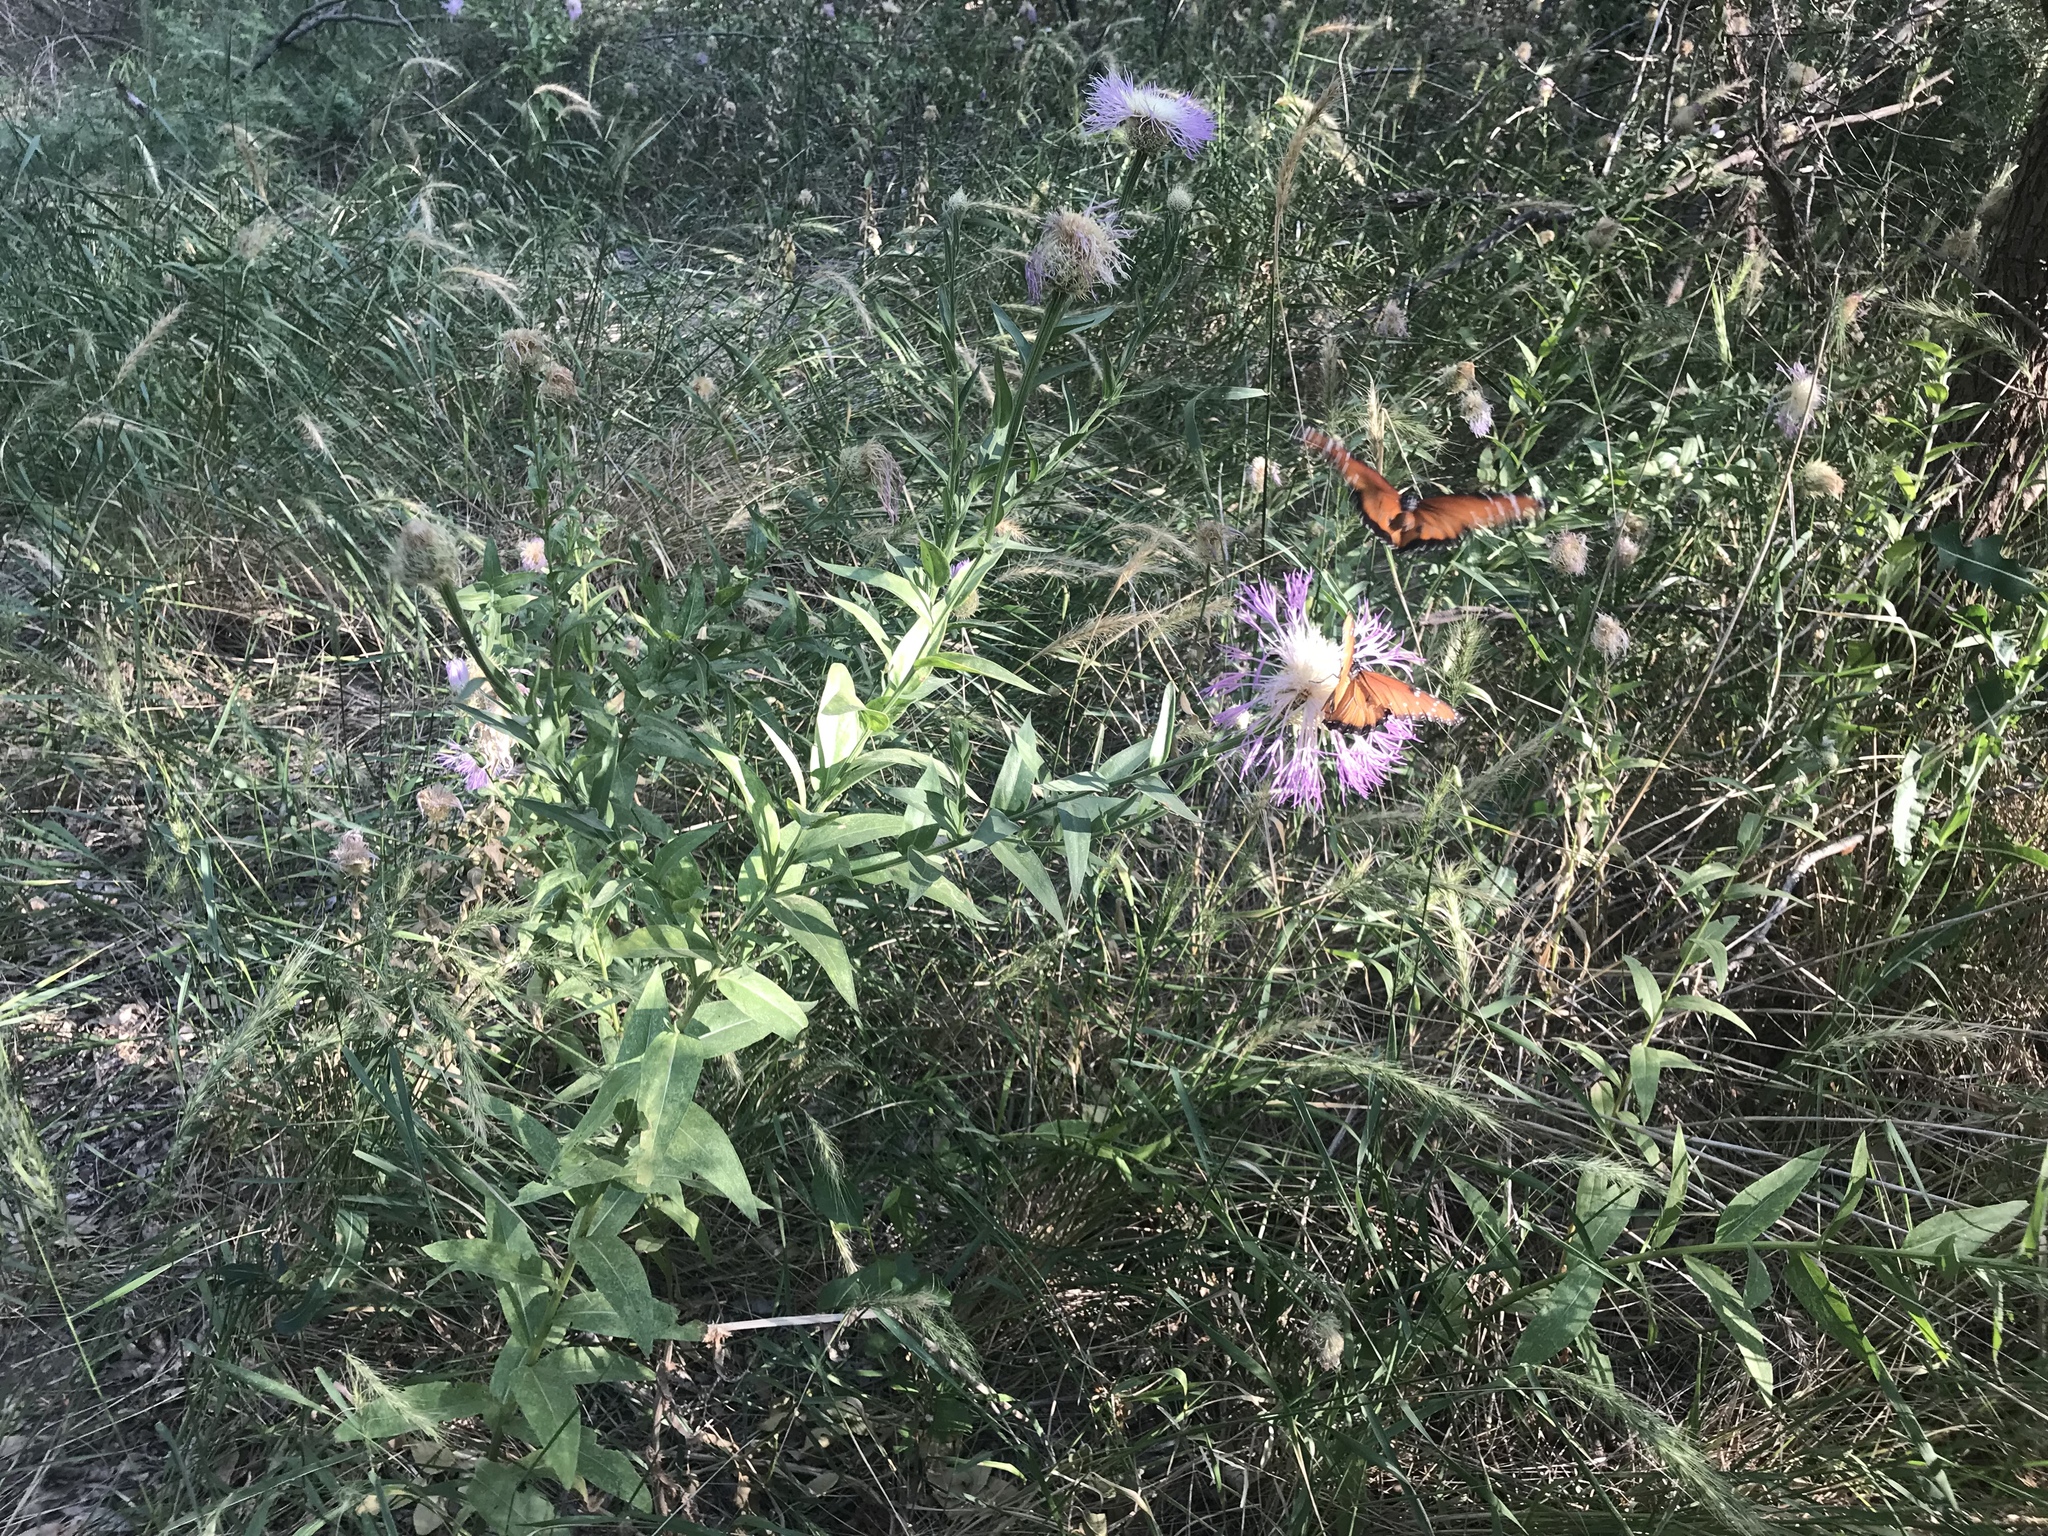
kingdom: Animalia
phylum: Arthropoda
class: Insecta
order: Lepidoptera
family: Nymphalidae
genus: Danaus
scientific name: Danaus gilippus
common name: Queen
